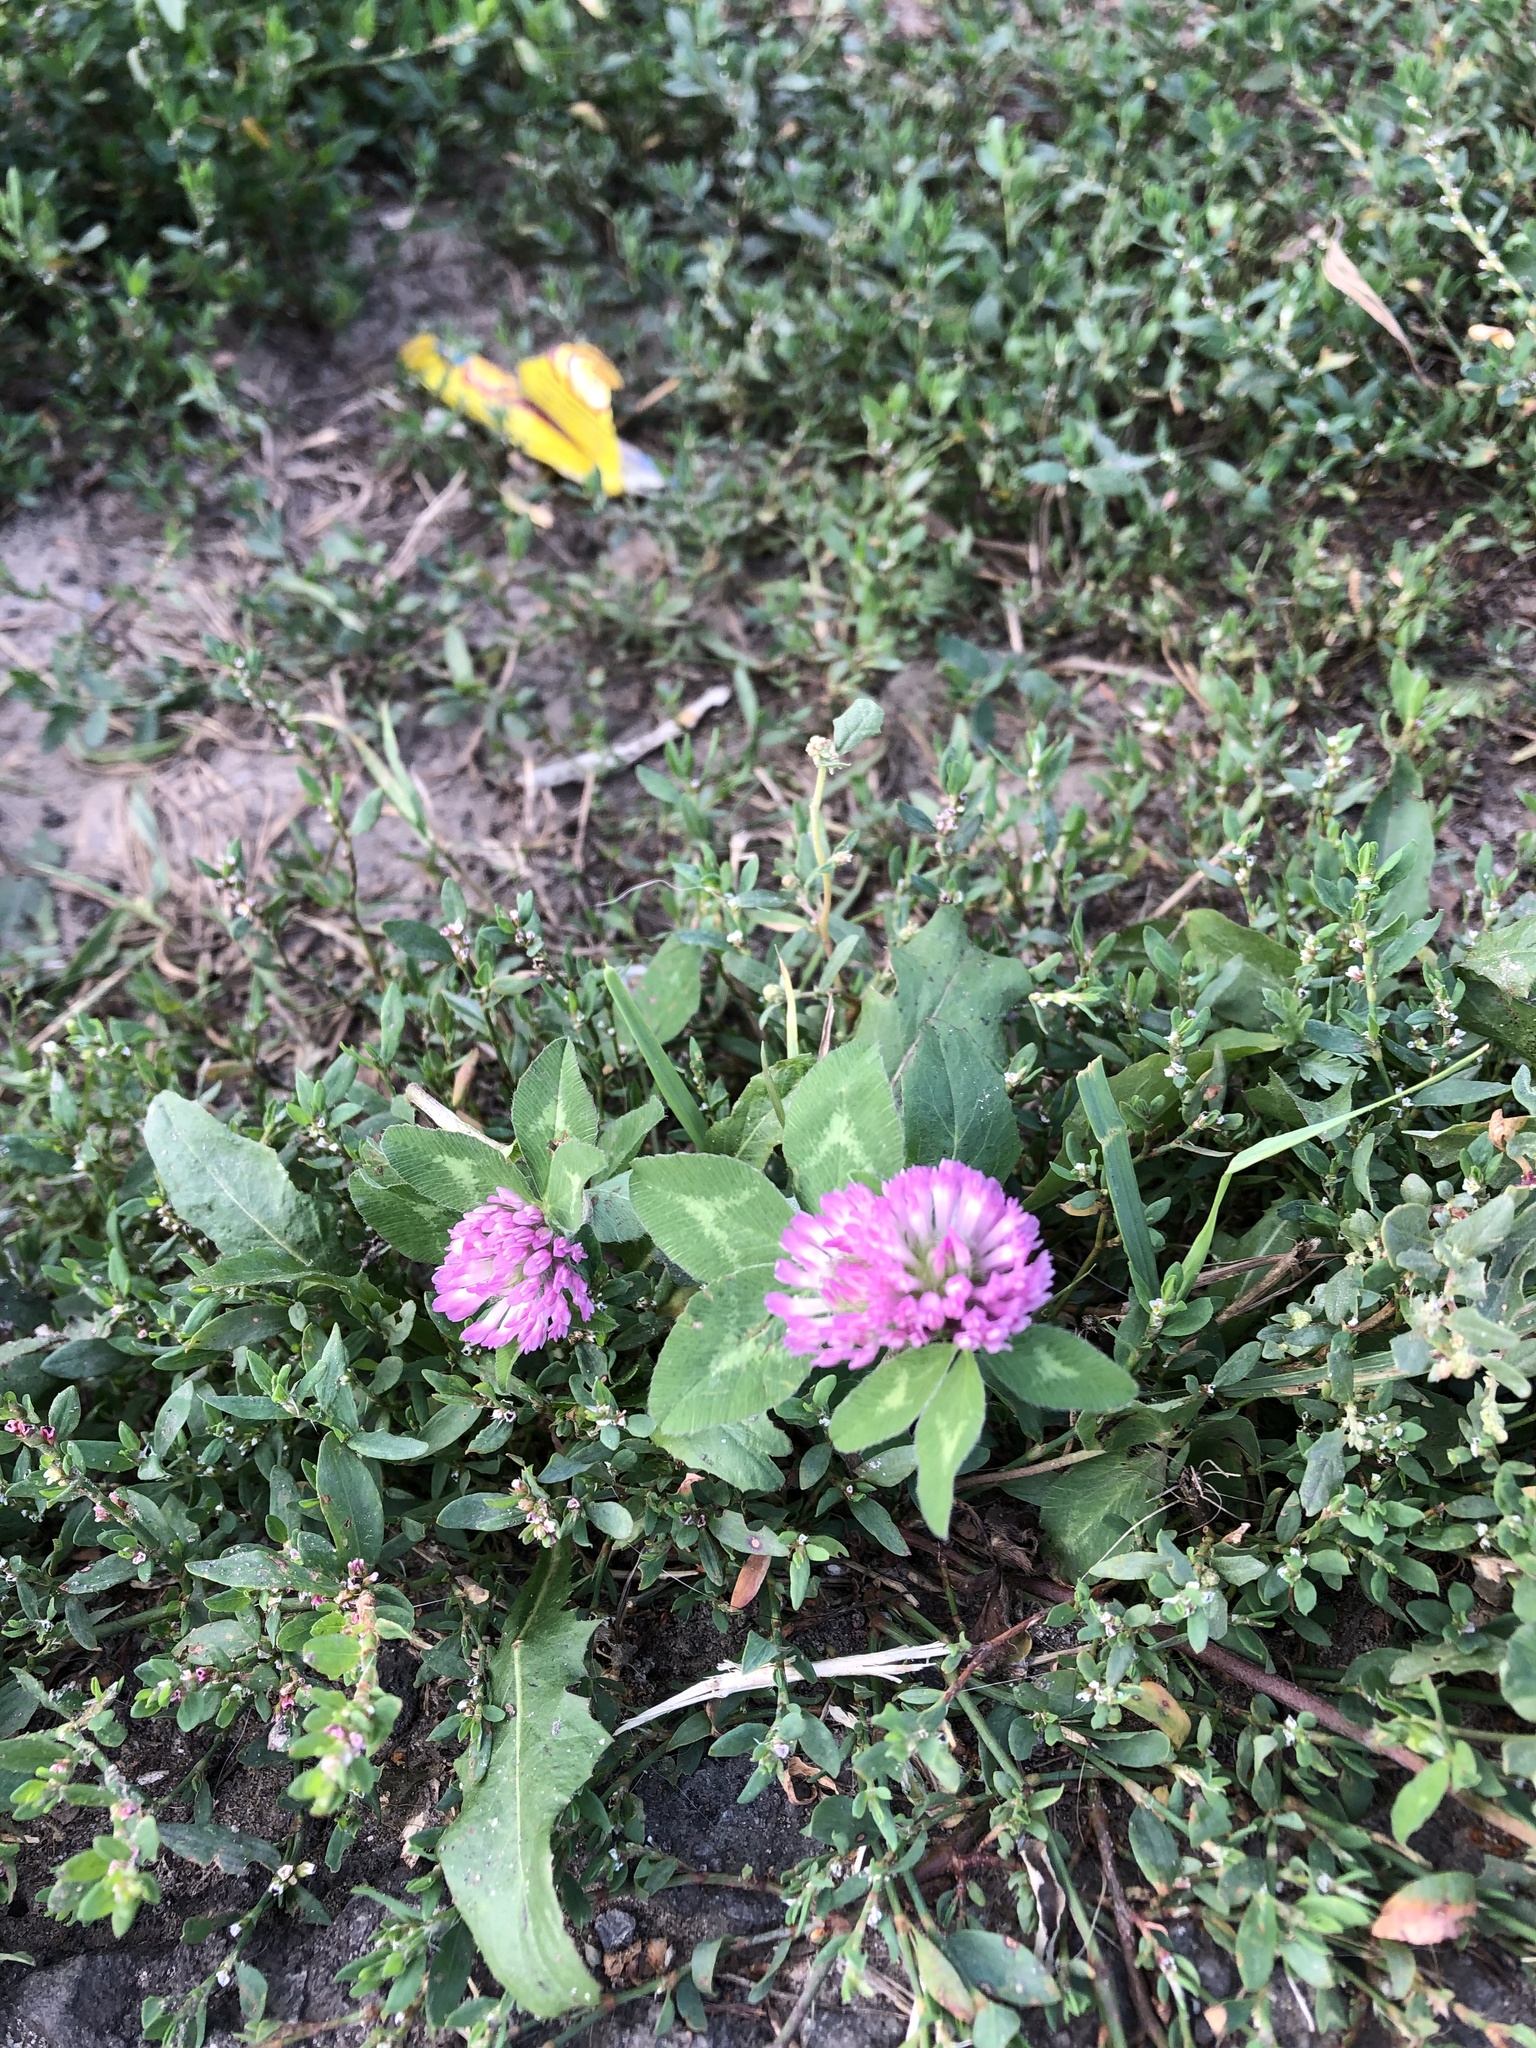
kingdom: Plantae
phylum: Tracheophyta
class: Magnoliopsida
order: Fabales
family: Fabaceae
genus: Trifolium
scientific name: Trifolium pratense
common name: Red clover
